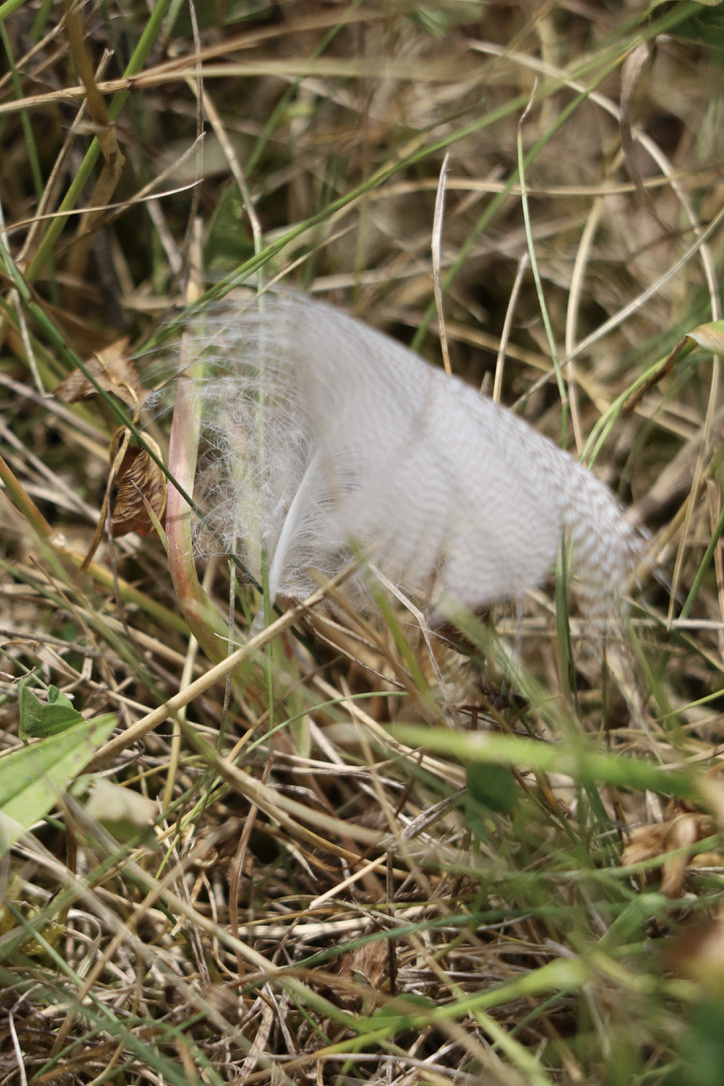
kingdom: Animalia
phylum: Chordata
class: Aves
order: Anseriformes
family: Anatidae
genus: Anas
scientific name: Anas platyrhynchos
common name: Mallard
